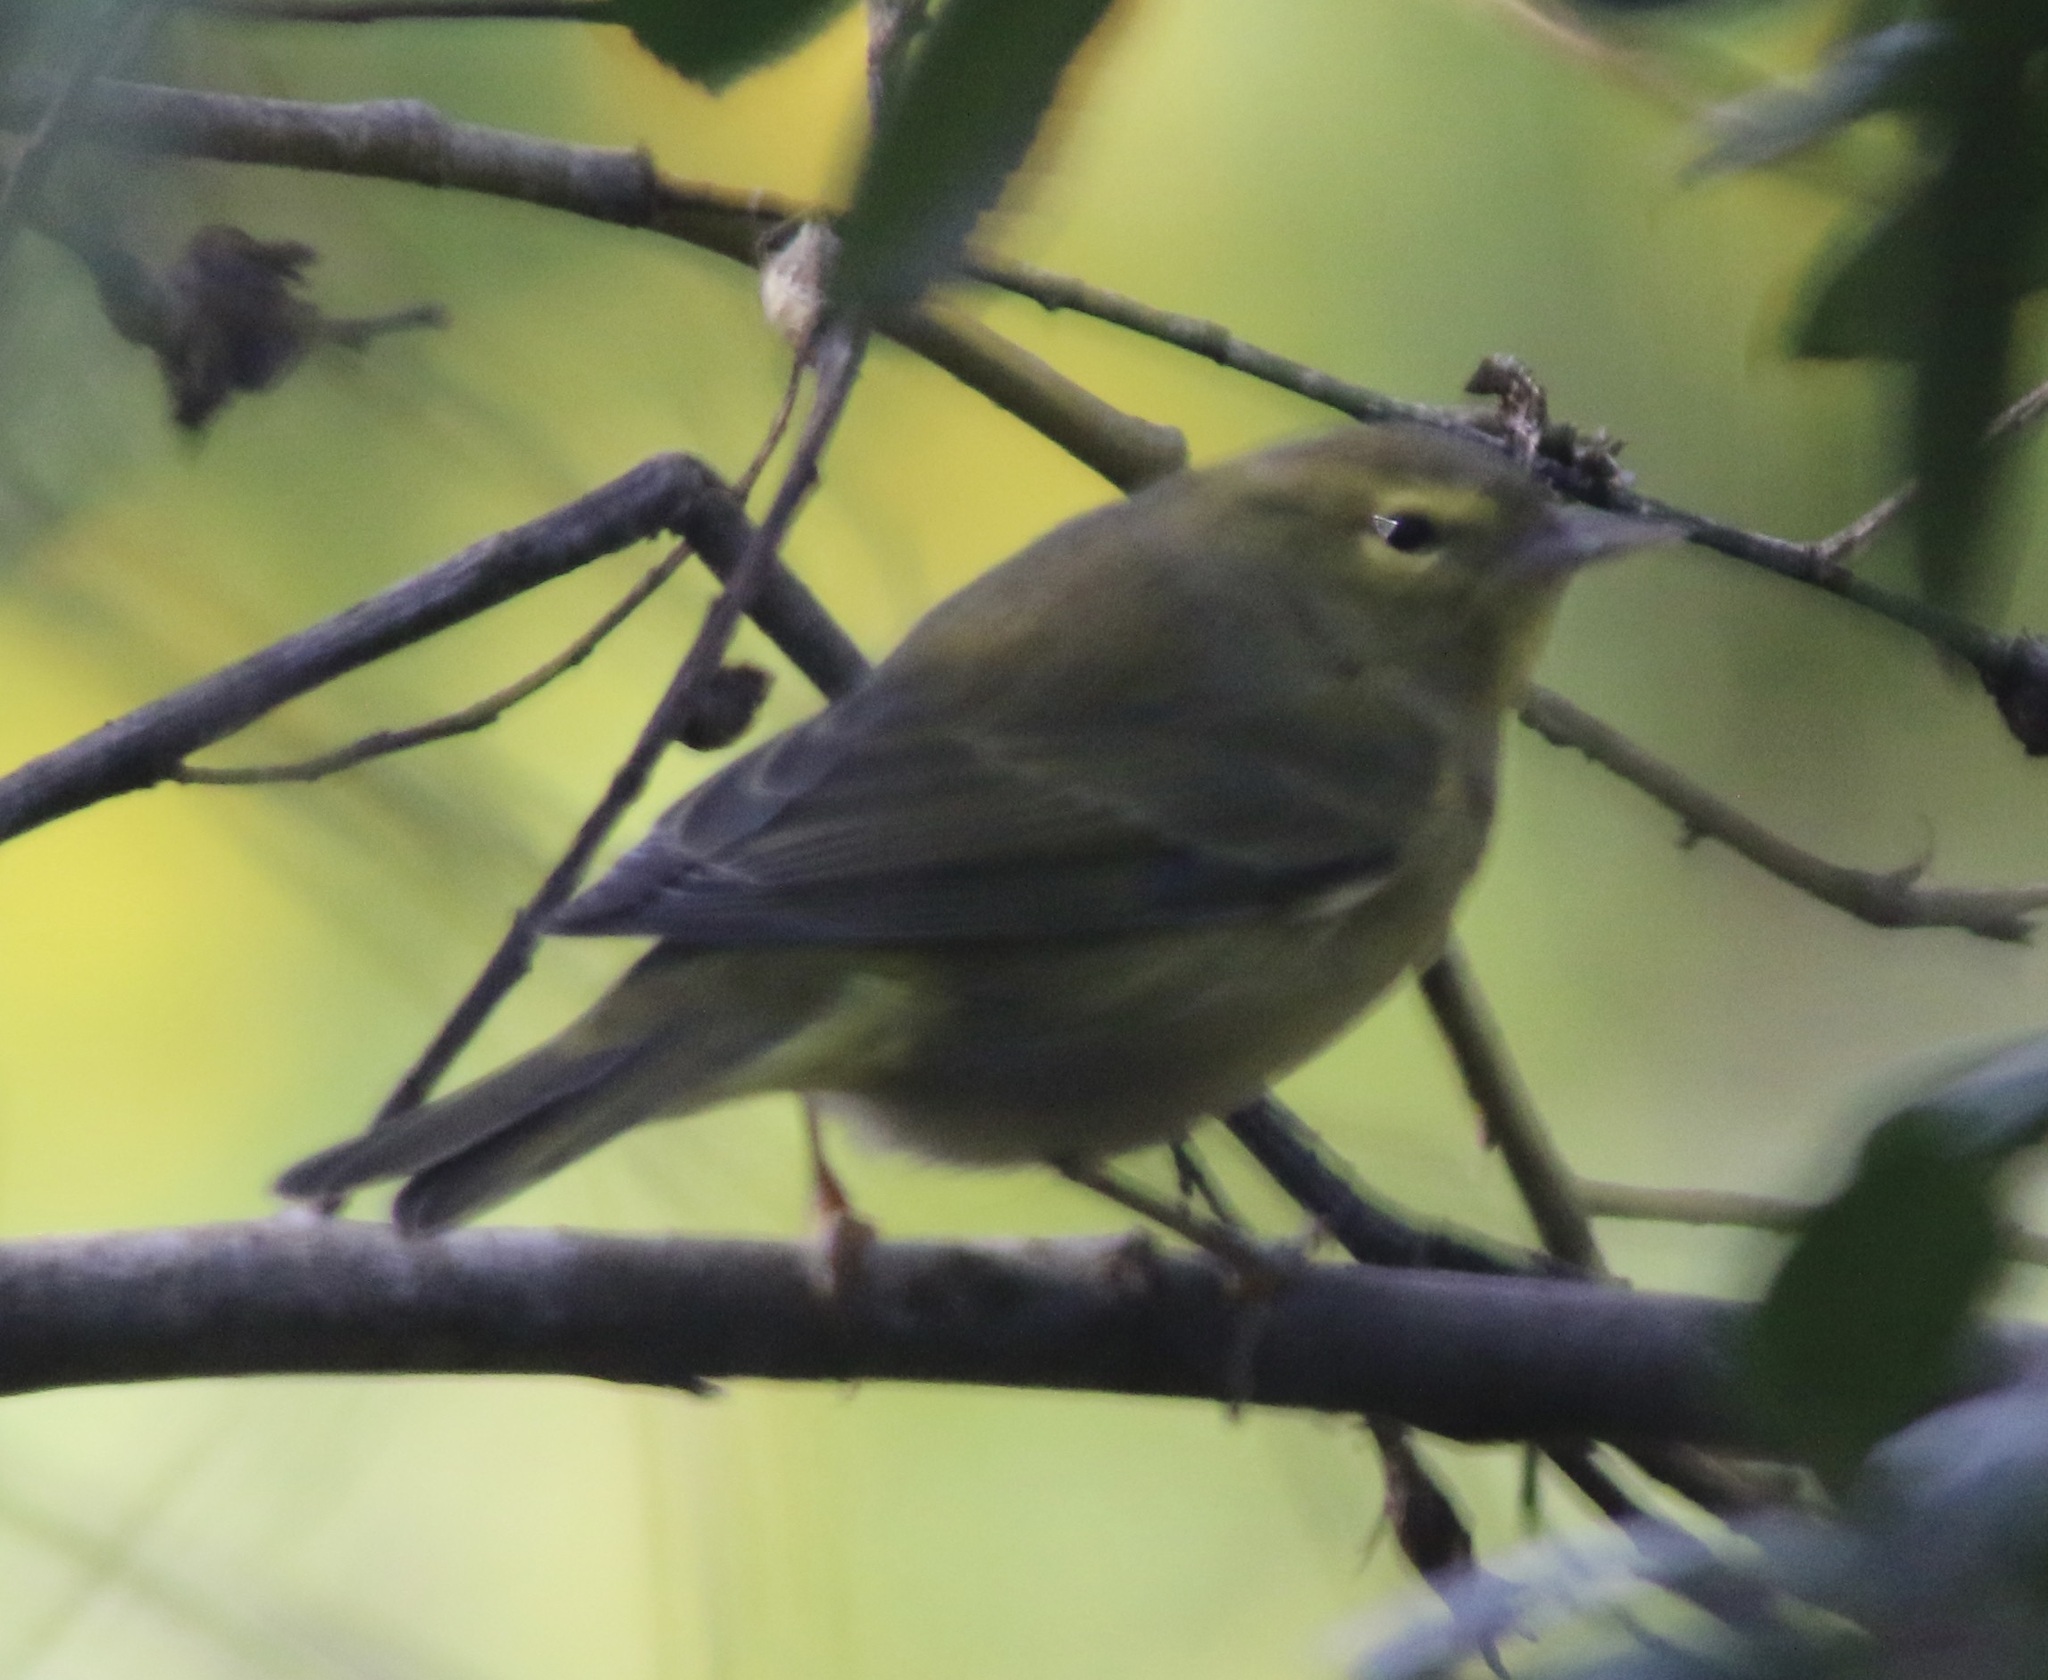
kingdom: Animalia
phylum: Chordata
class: Aves
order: Passeriformes
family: Parulidae
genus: Leiothlypis
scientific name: Leiothlypis celata
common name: Orange-crowned warbler
